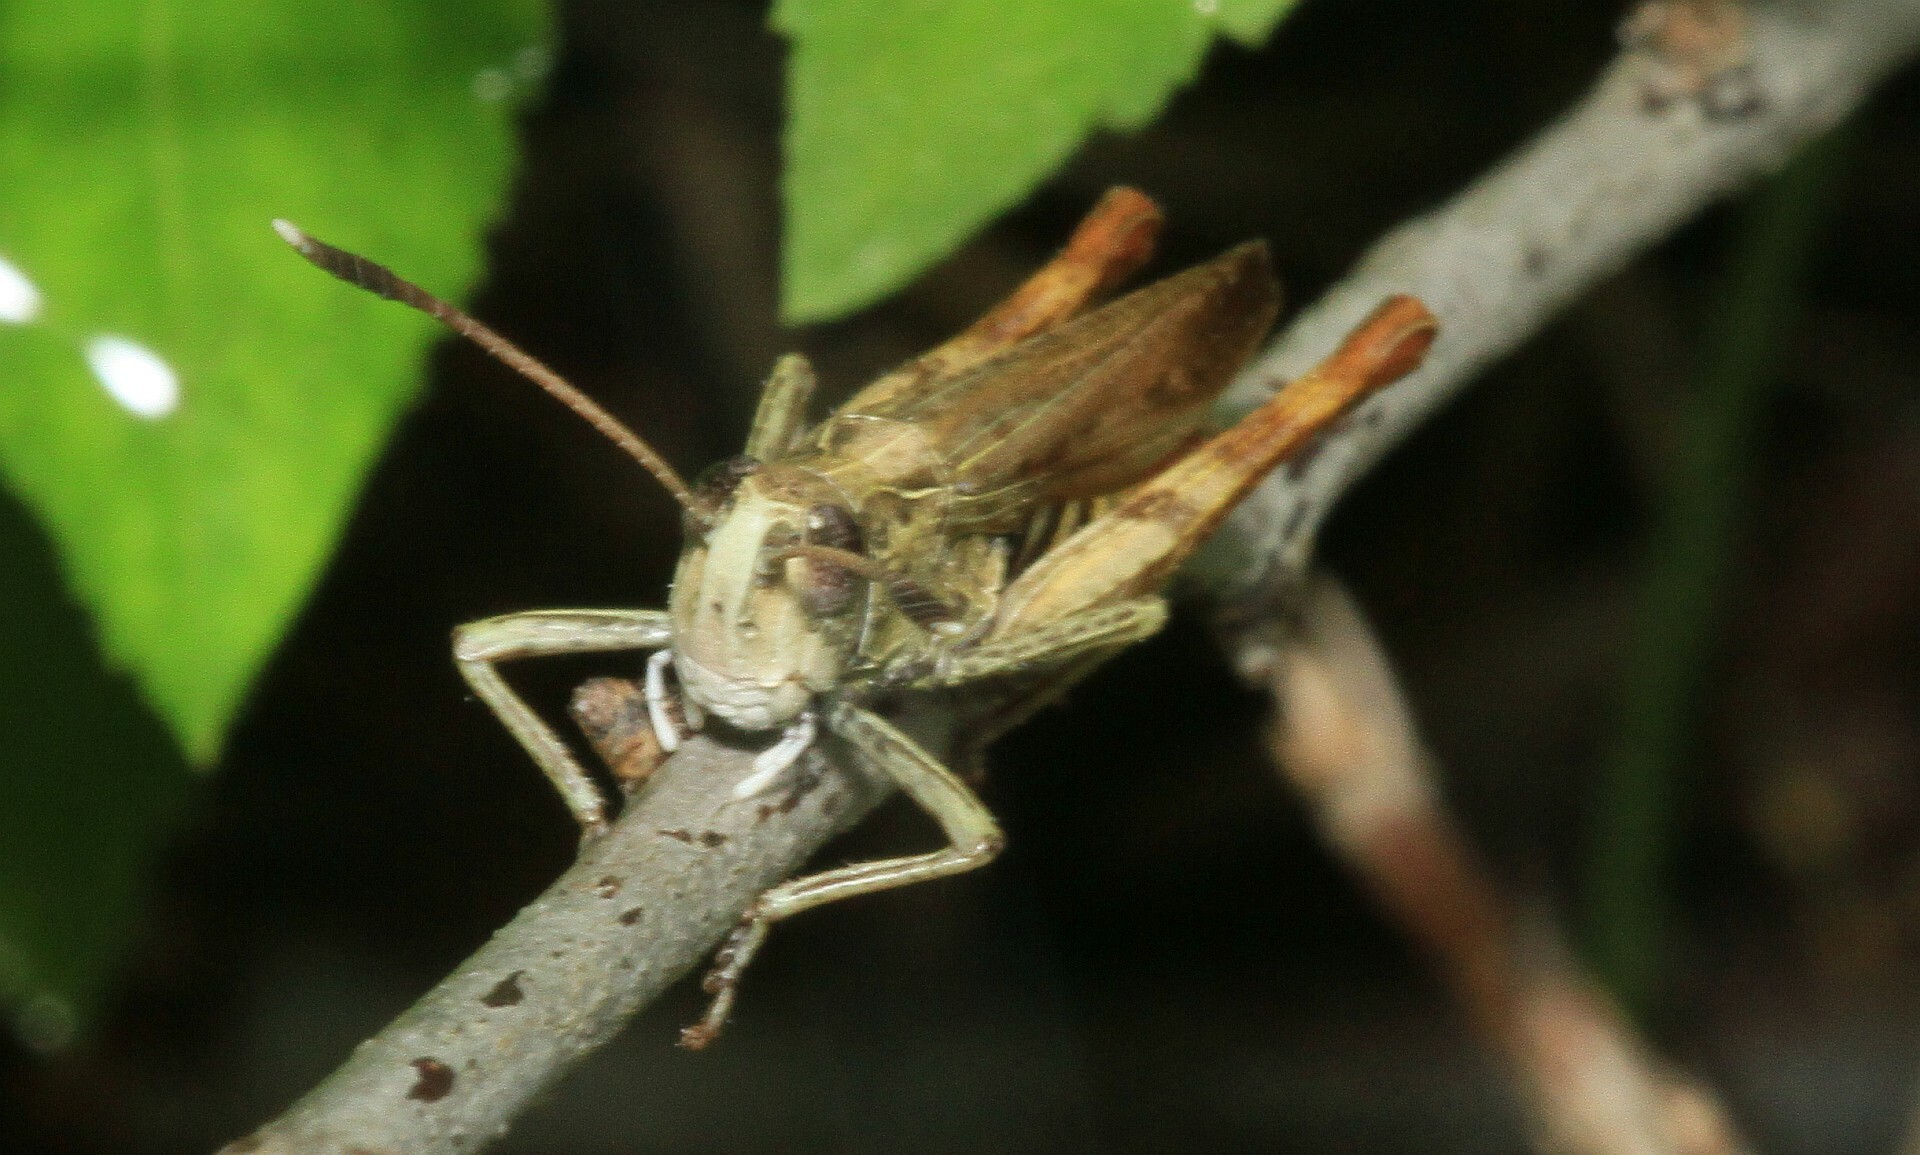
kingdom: Animalia
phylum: Arthropoda
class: Insecta
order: Orthoptera
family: Acrididae
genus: Gomphocerippus
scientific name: Gomphocerippus rufus
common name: Rufous grasshopper
